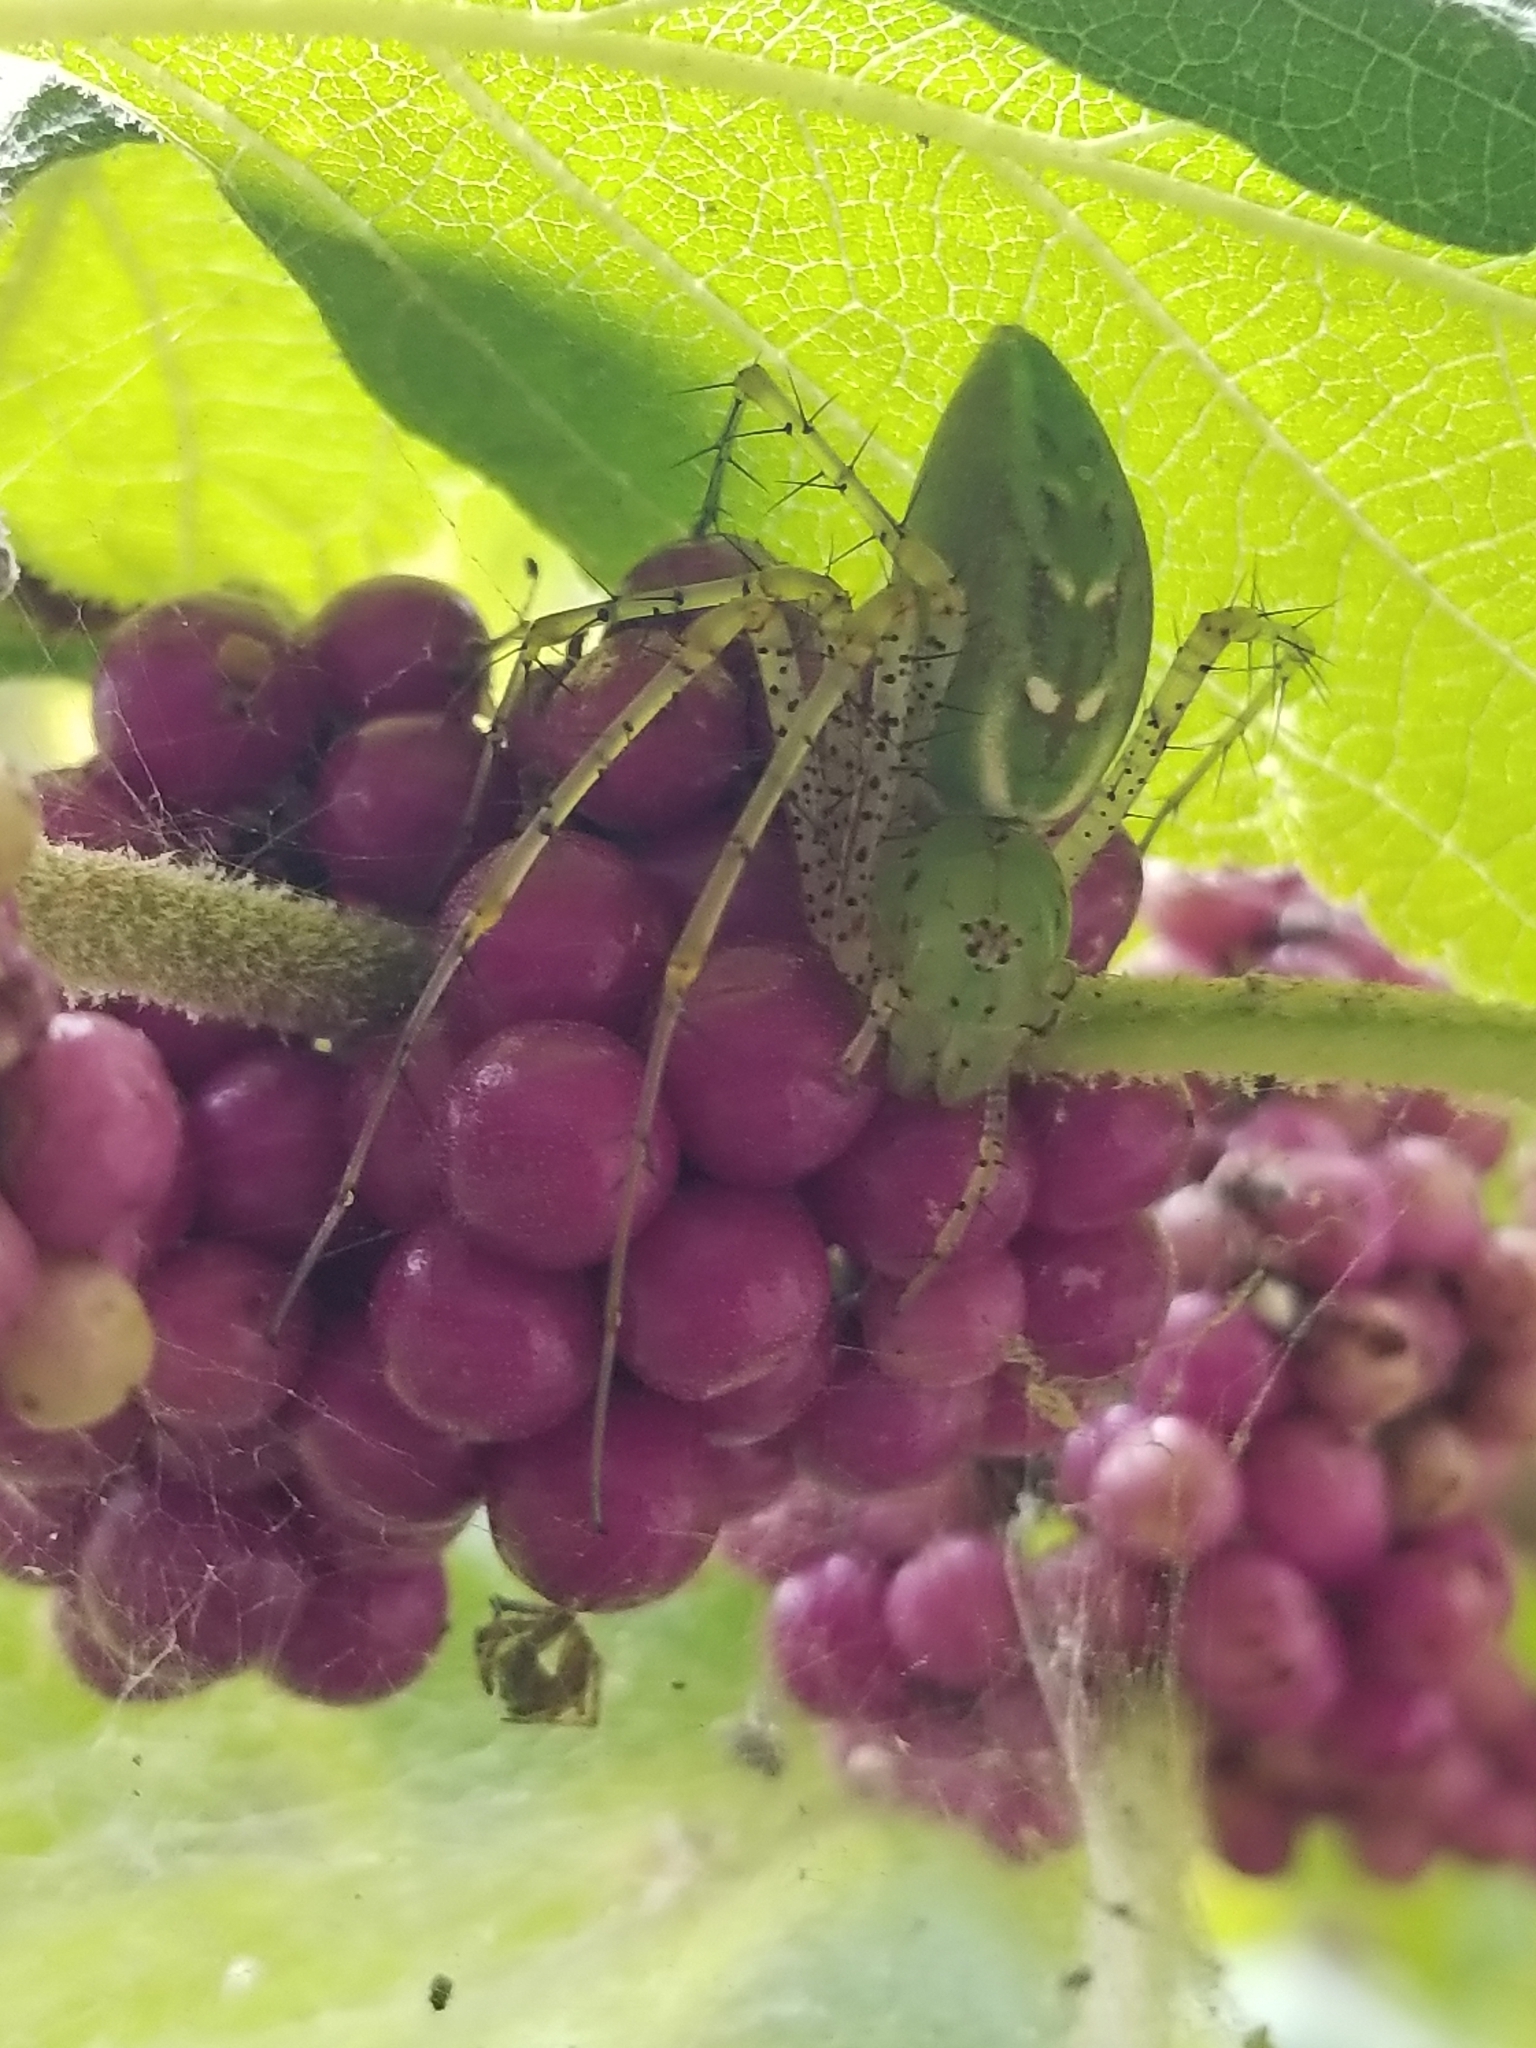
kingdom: Animalia
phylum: Arthropoda
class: Arachnida
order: Araneae
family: Oxyopidae
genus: Peucetia
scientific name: Peucetia viridans
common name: Lynx spiders
